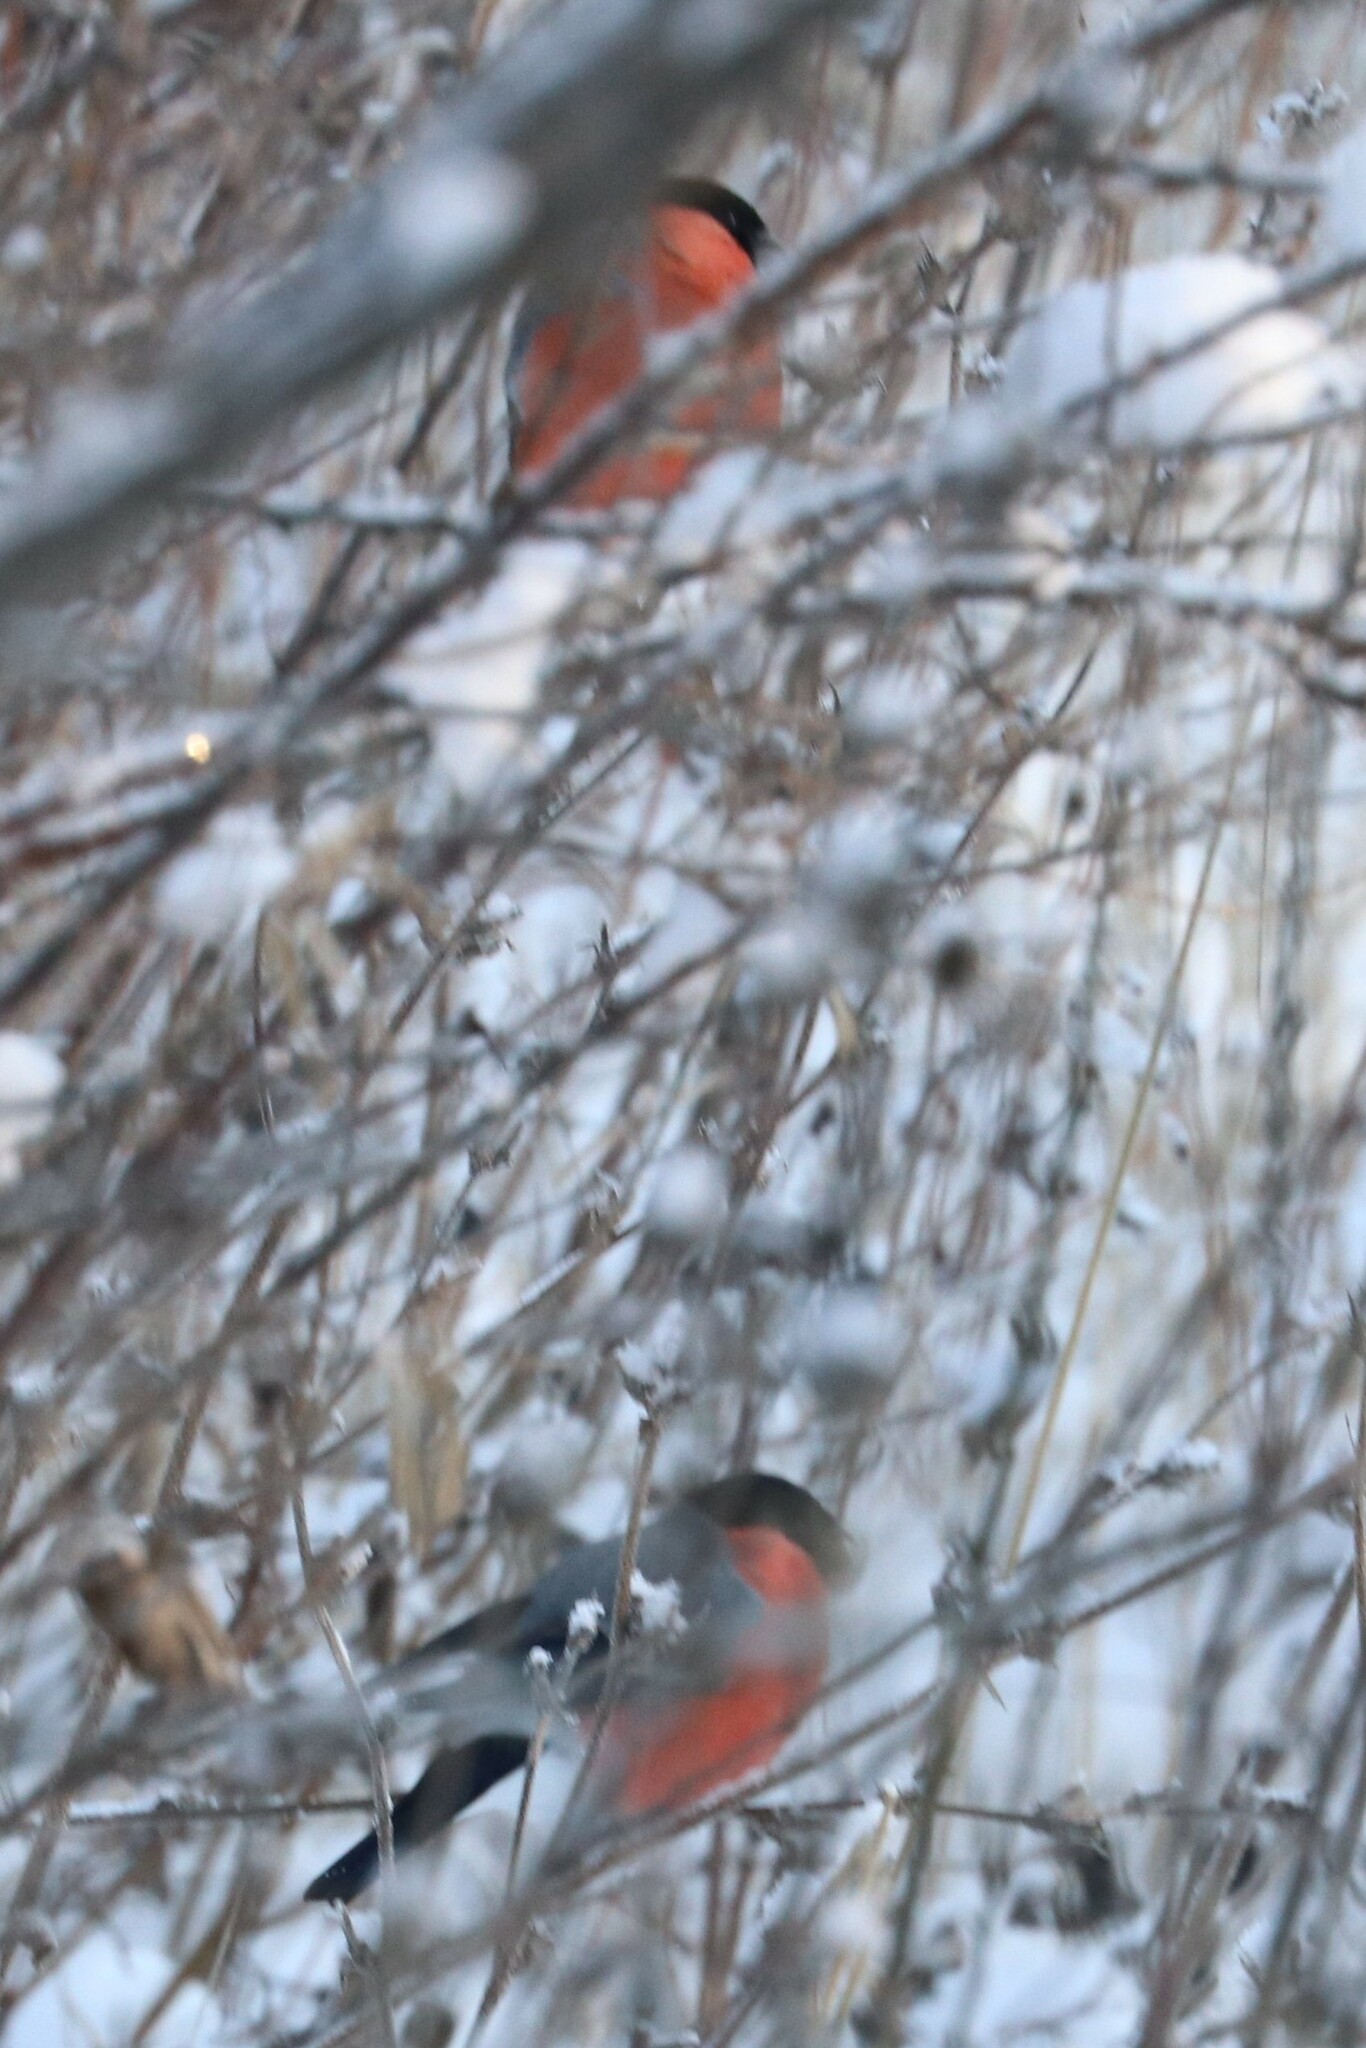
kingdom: Animalia
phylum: Chordata
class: Aves
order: Passeriformes
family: Fringillidae
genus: Pyrrhula
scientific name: Pyrrhula pyrrhula
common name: Eurasian bullfinch
